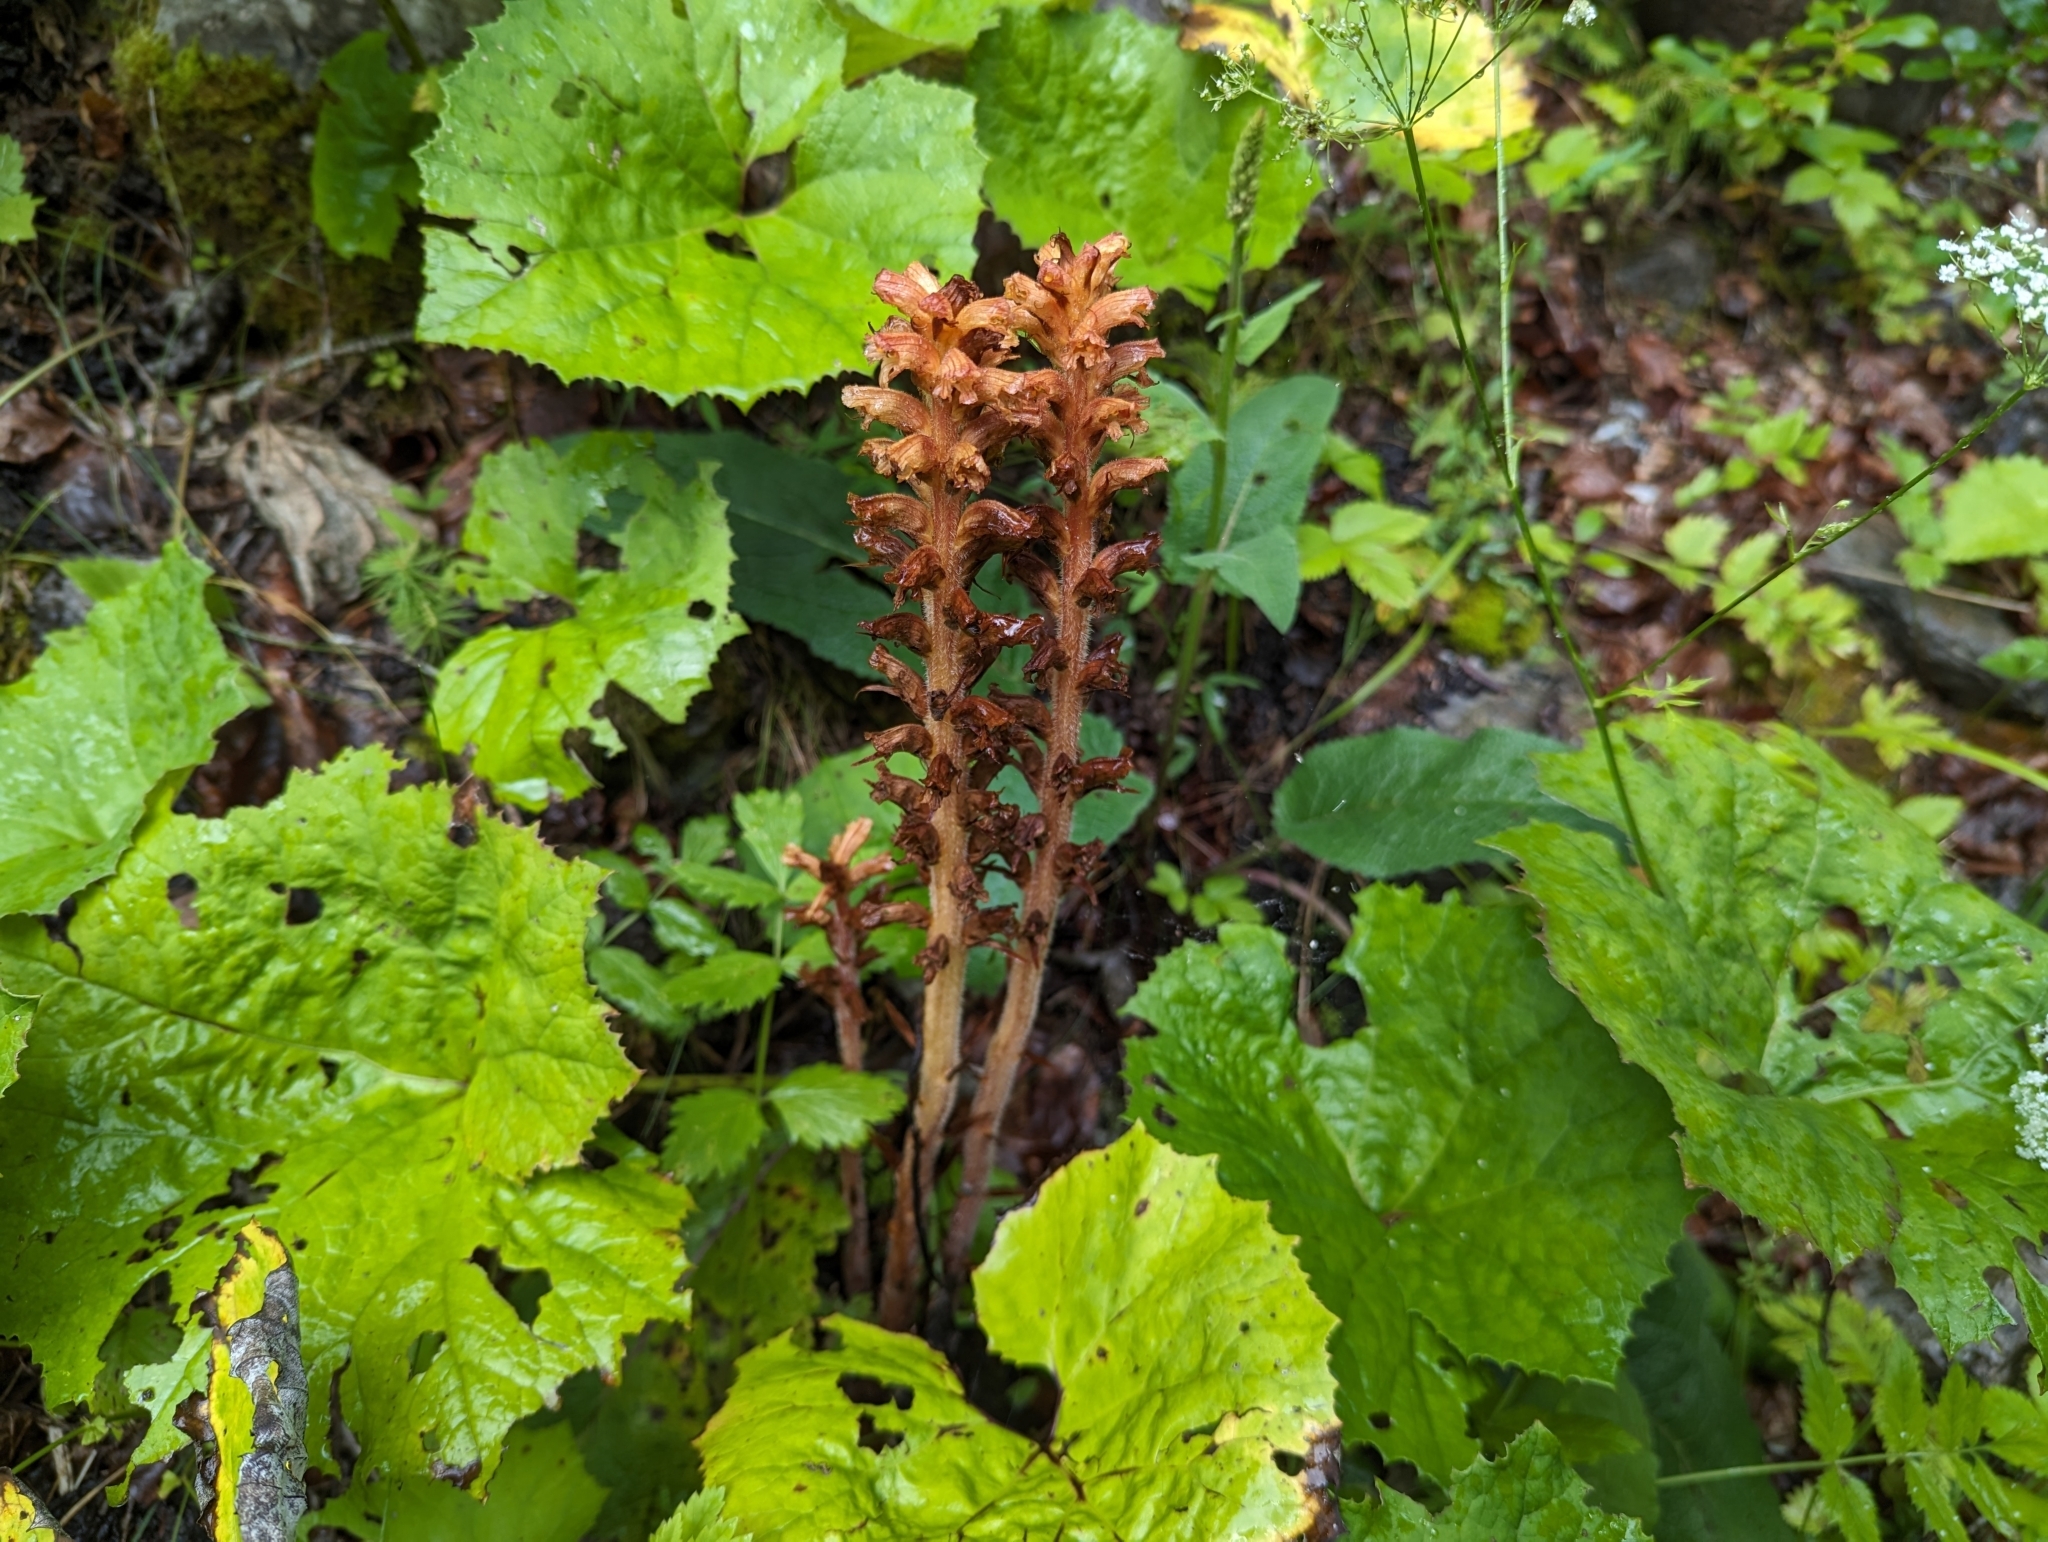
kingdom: Plantae
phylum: Tracheophyta
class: Magnoliopsida
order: Lamiales
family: Orobanchaceae
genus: Orobanche
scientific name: Orobanche flava
